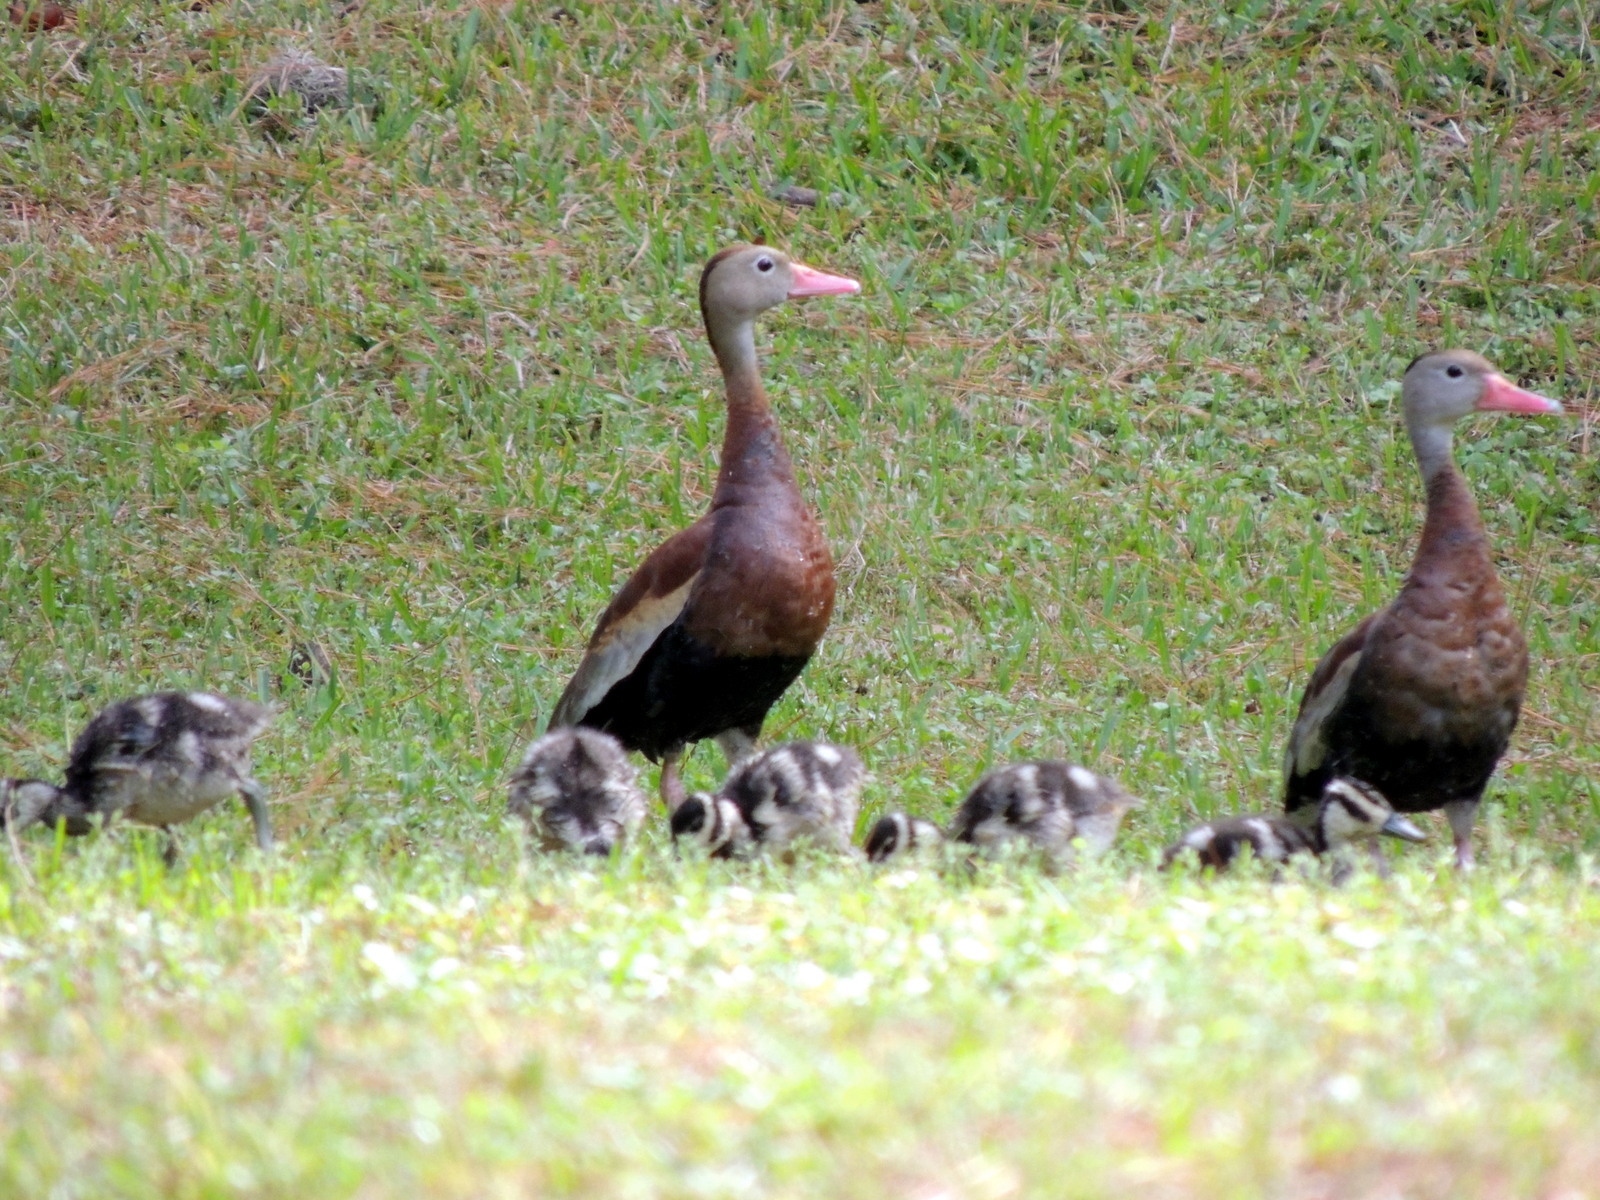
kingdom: Animalia
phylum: Chordata
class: Aves
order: Anseriformes
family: Anatidae
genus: Dendrocygna
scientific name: Dendrocygna autumnalis
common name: Black-bellied whistling duck
